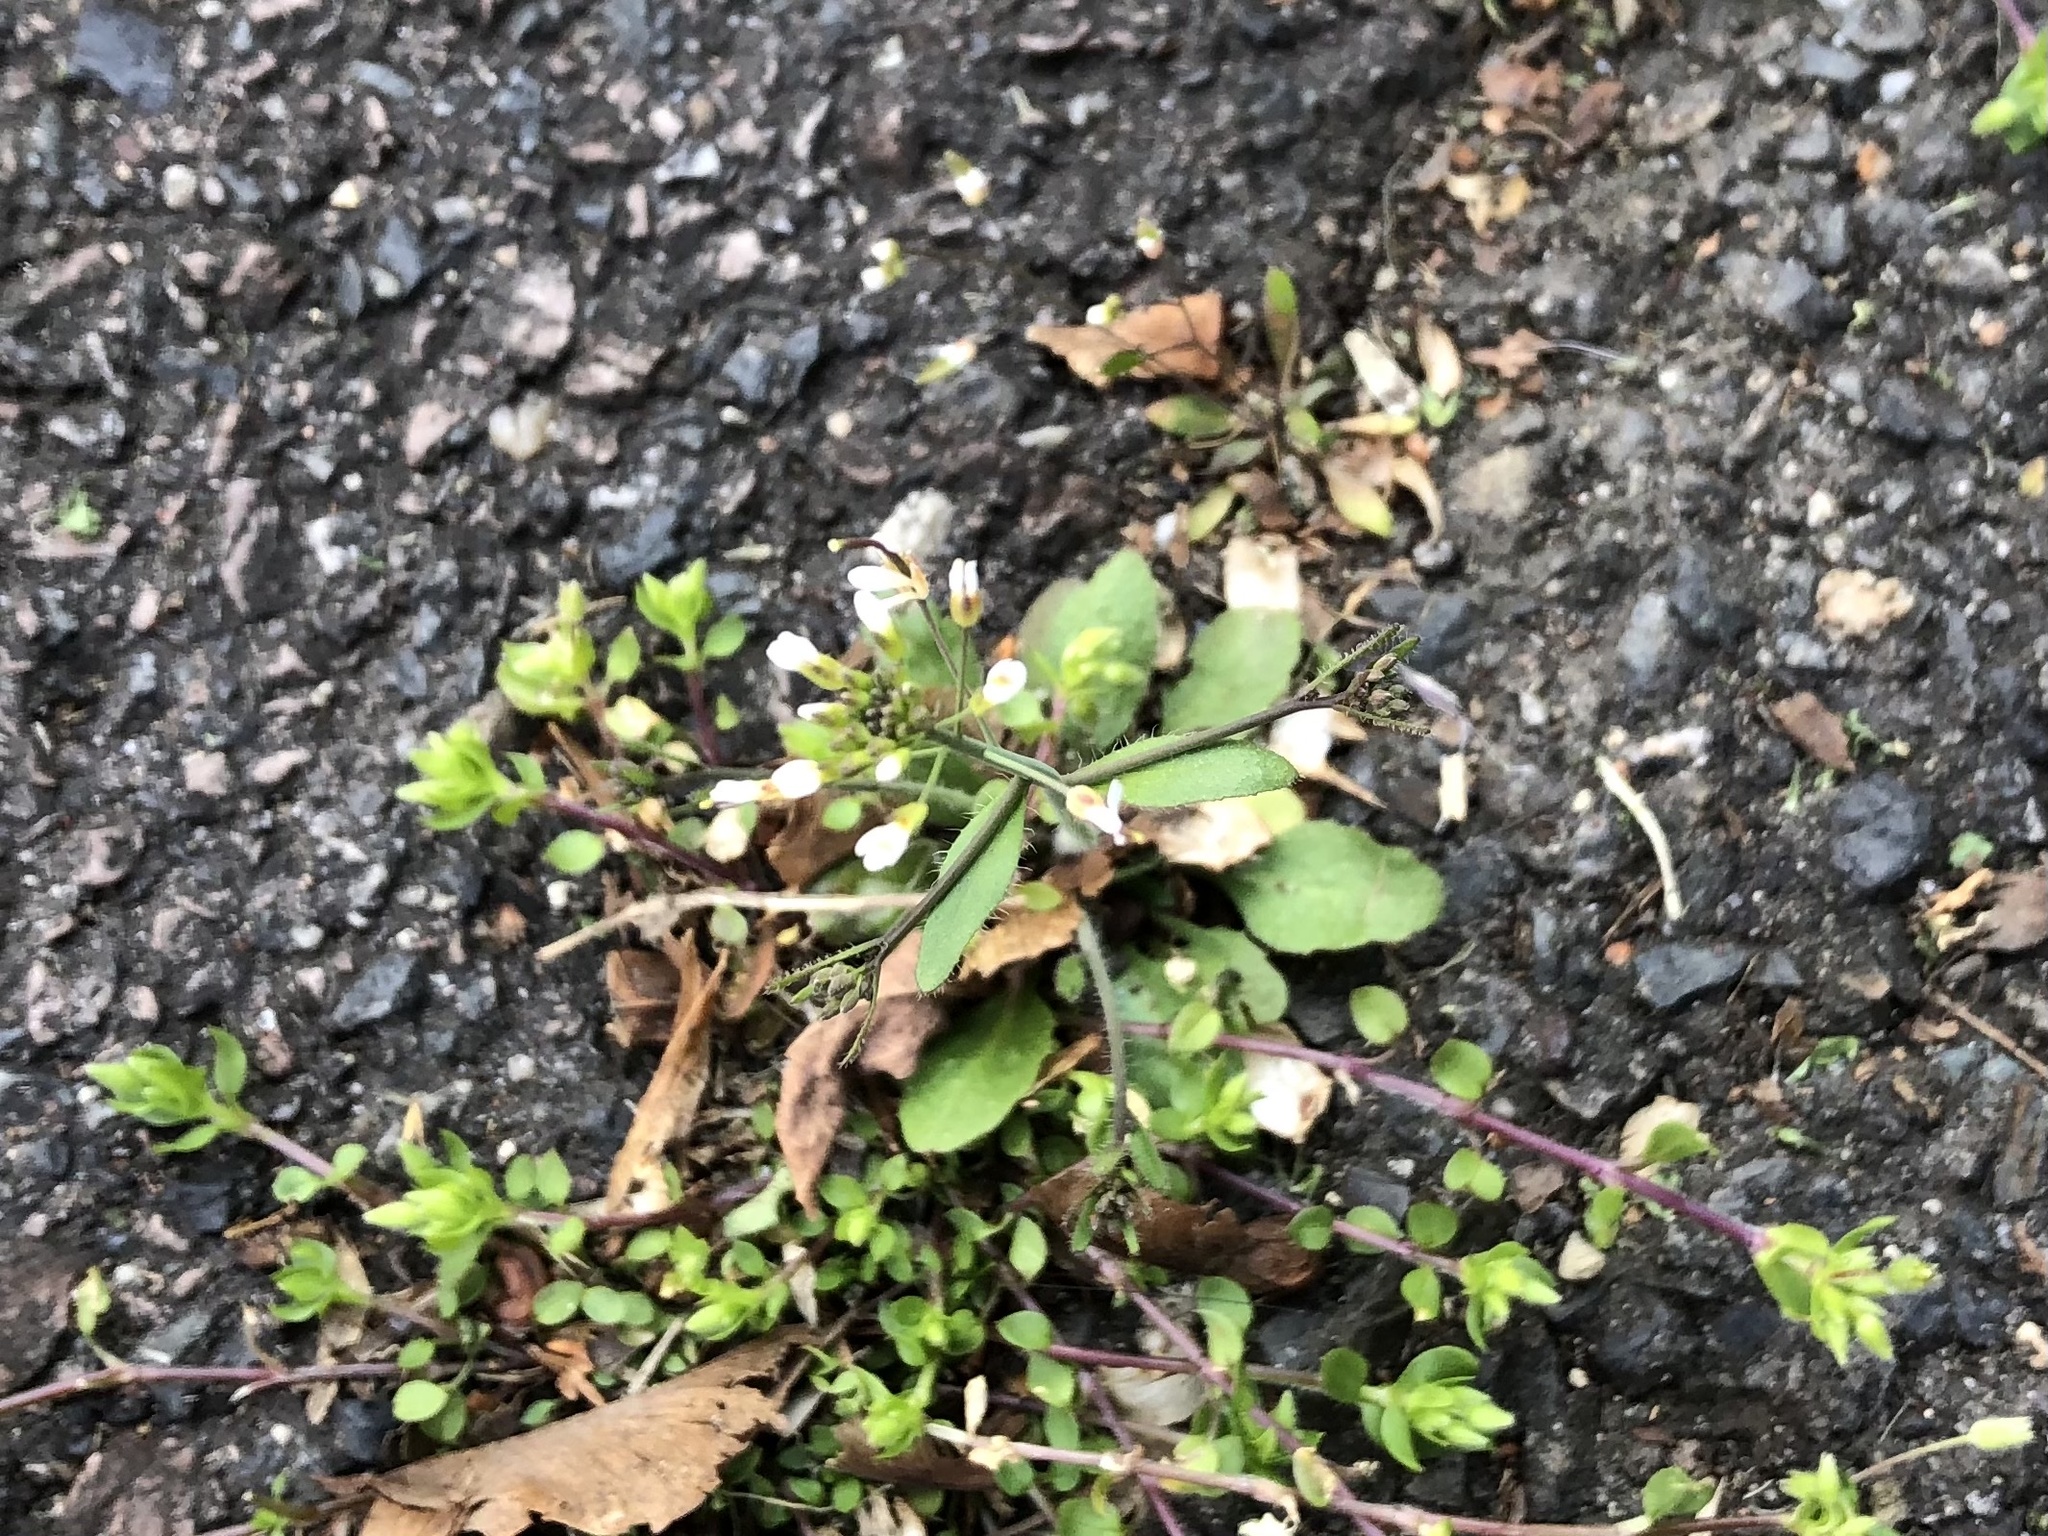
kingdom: Plantae
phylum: Tracheophyta
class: Magnoliopsida
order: Brassicales
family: Brassicaceae
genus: Arabidopsis
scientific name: Arabidopsis thaliana
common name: Thale cress
